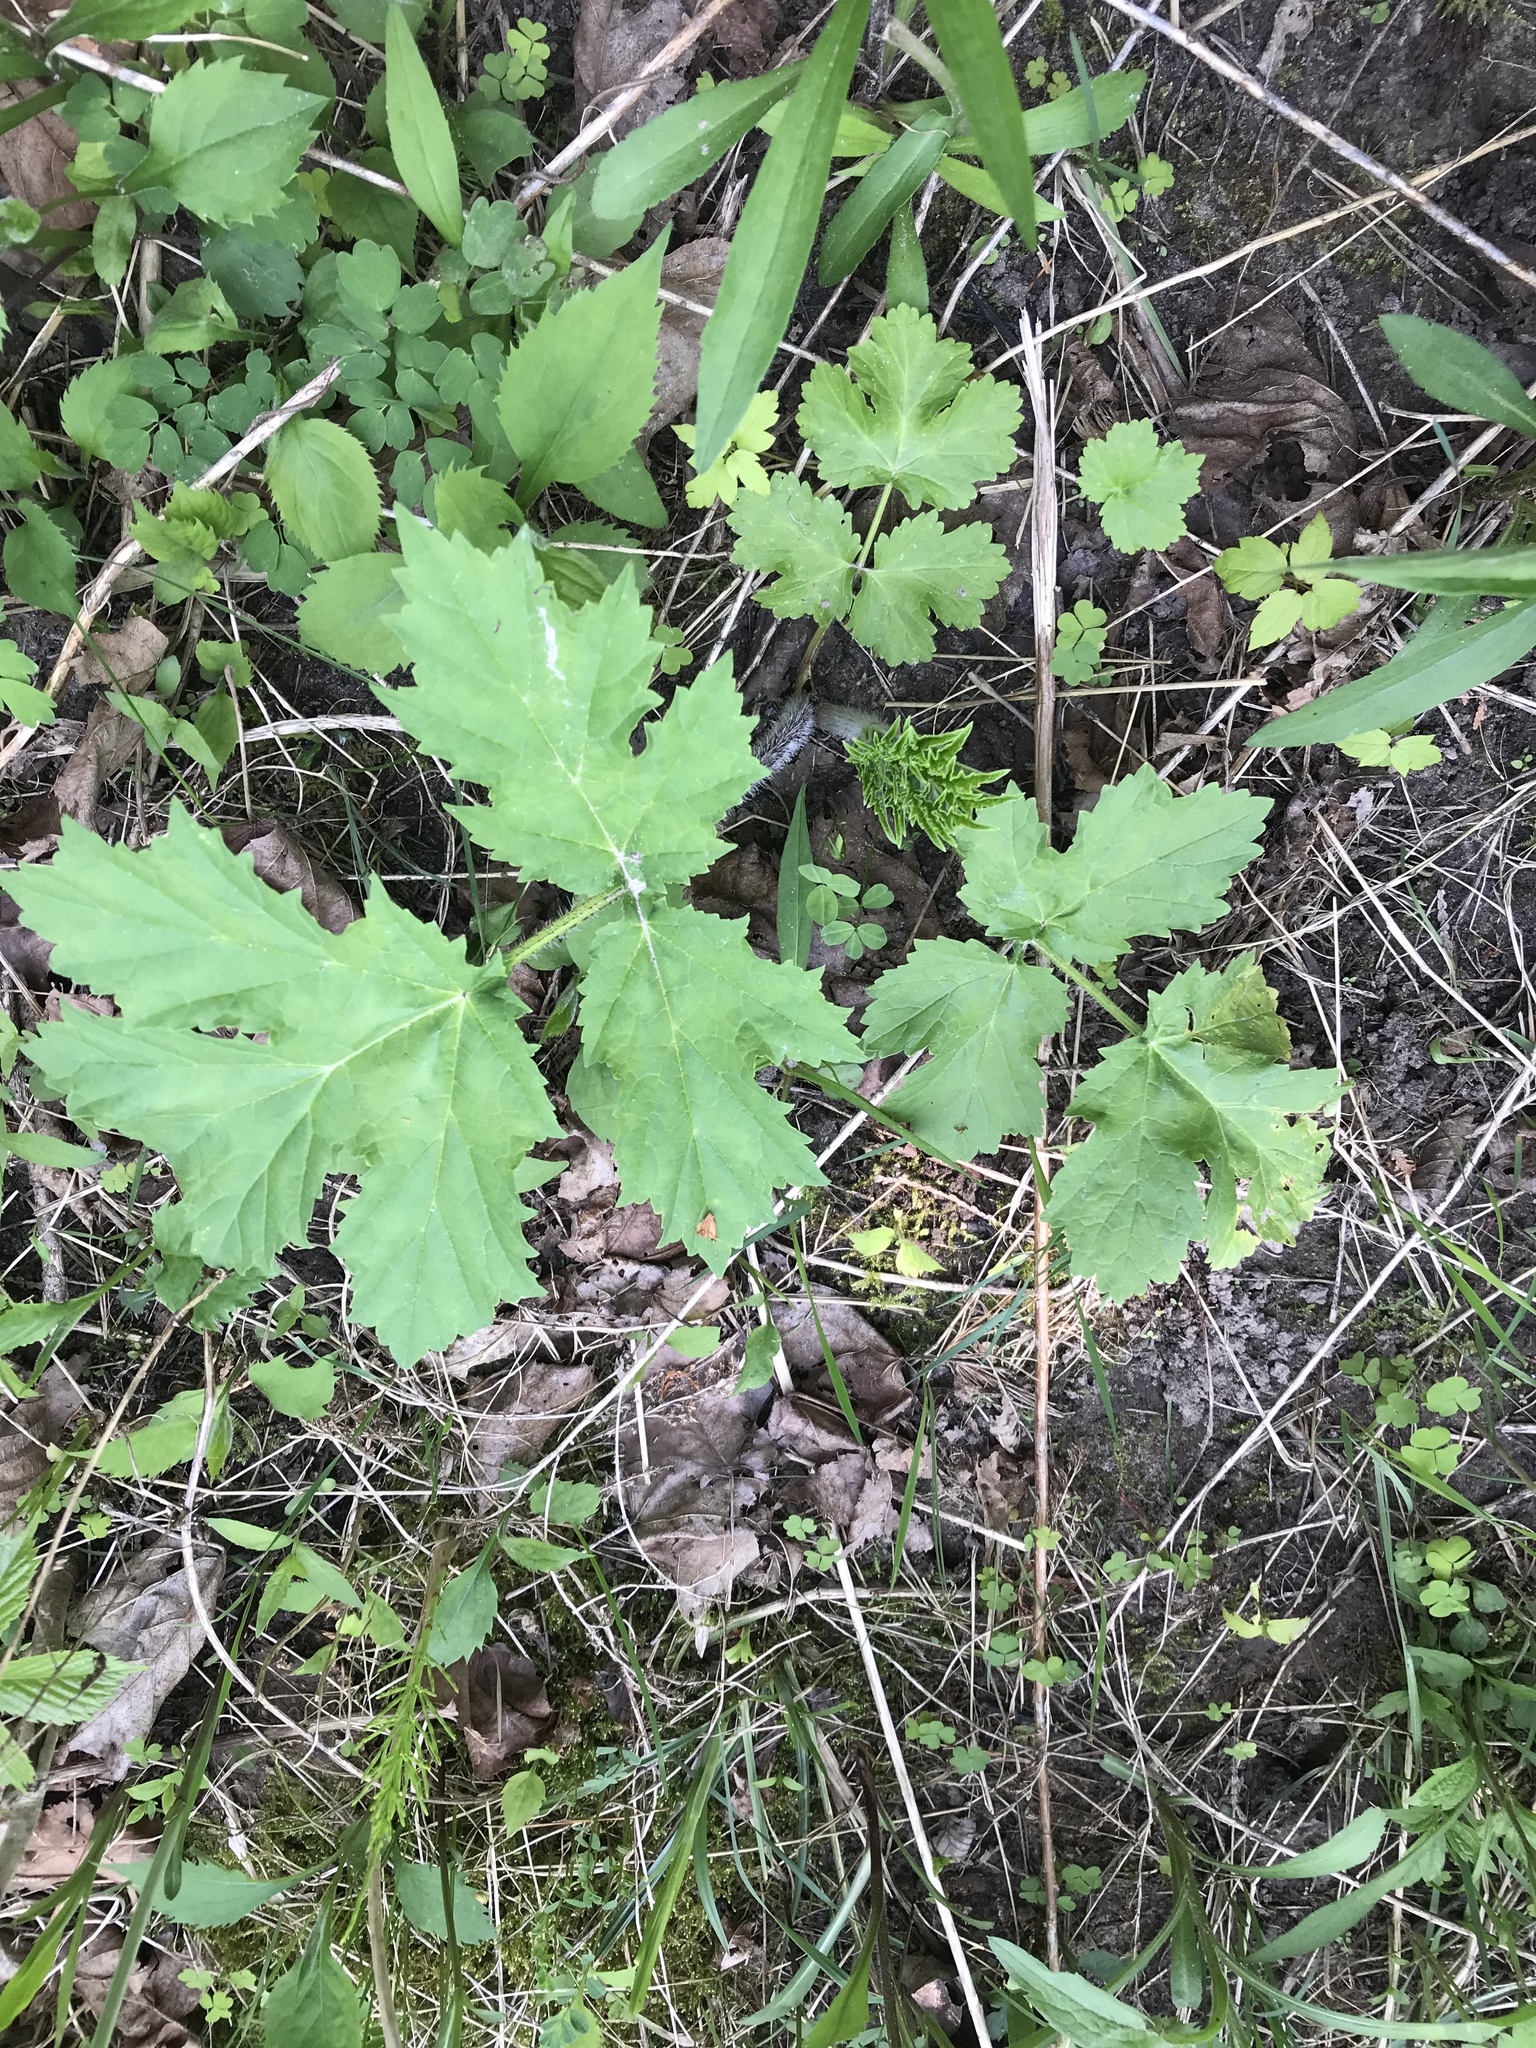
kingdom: Plantae
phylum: Tracheophyta
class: Magnoliopsida
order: Apiales
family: Apiaceae
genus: Heracleum
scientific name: Heracleum mantegazzianum
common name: Giant hogweed
